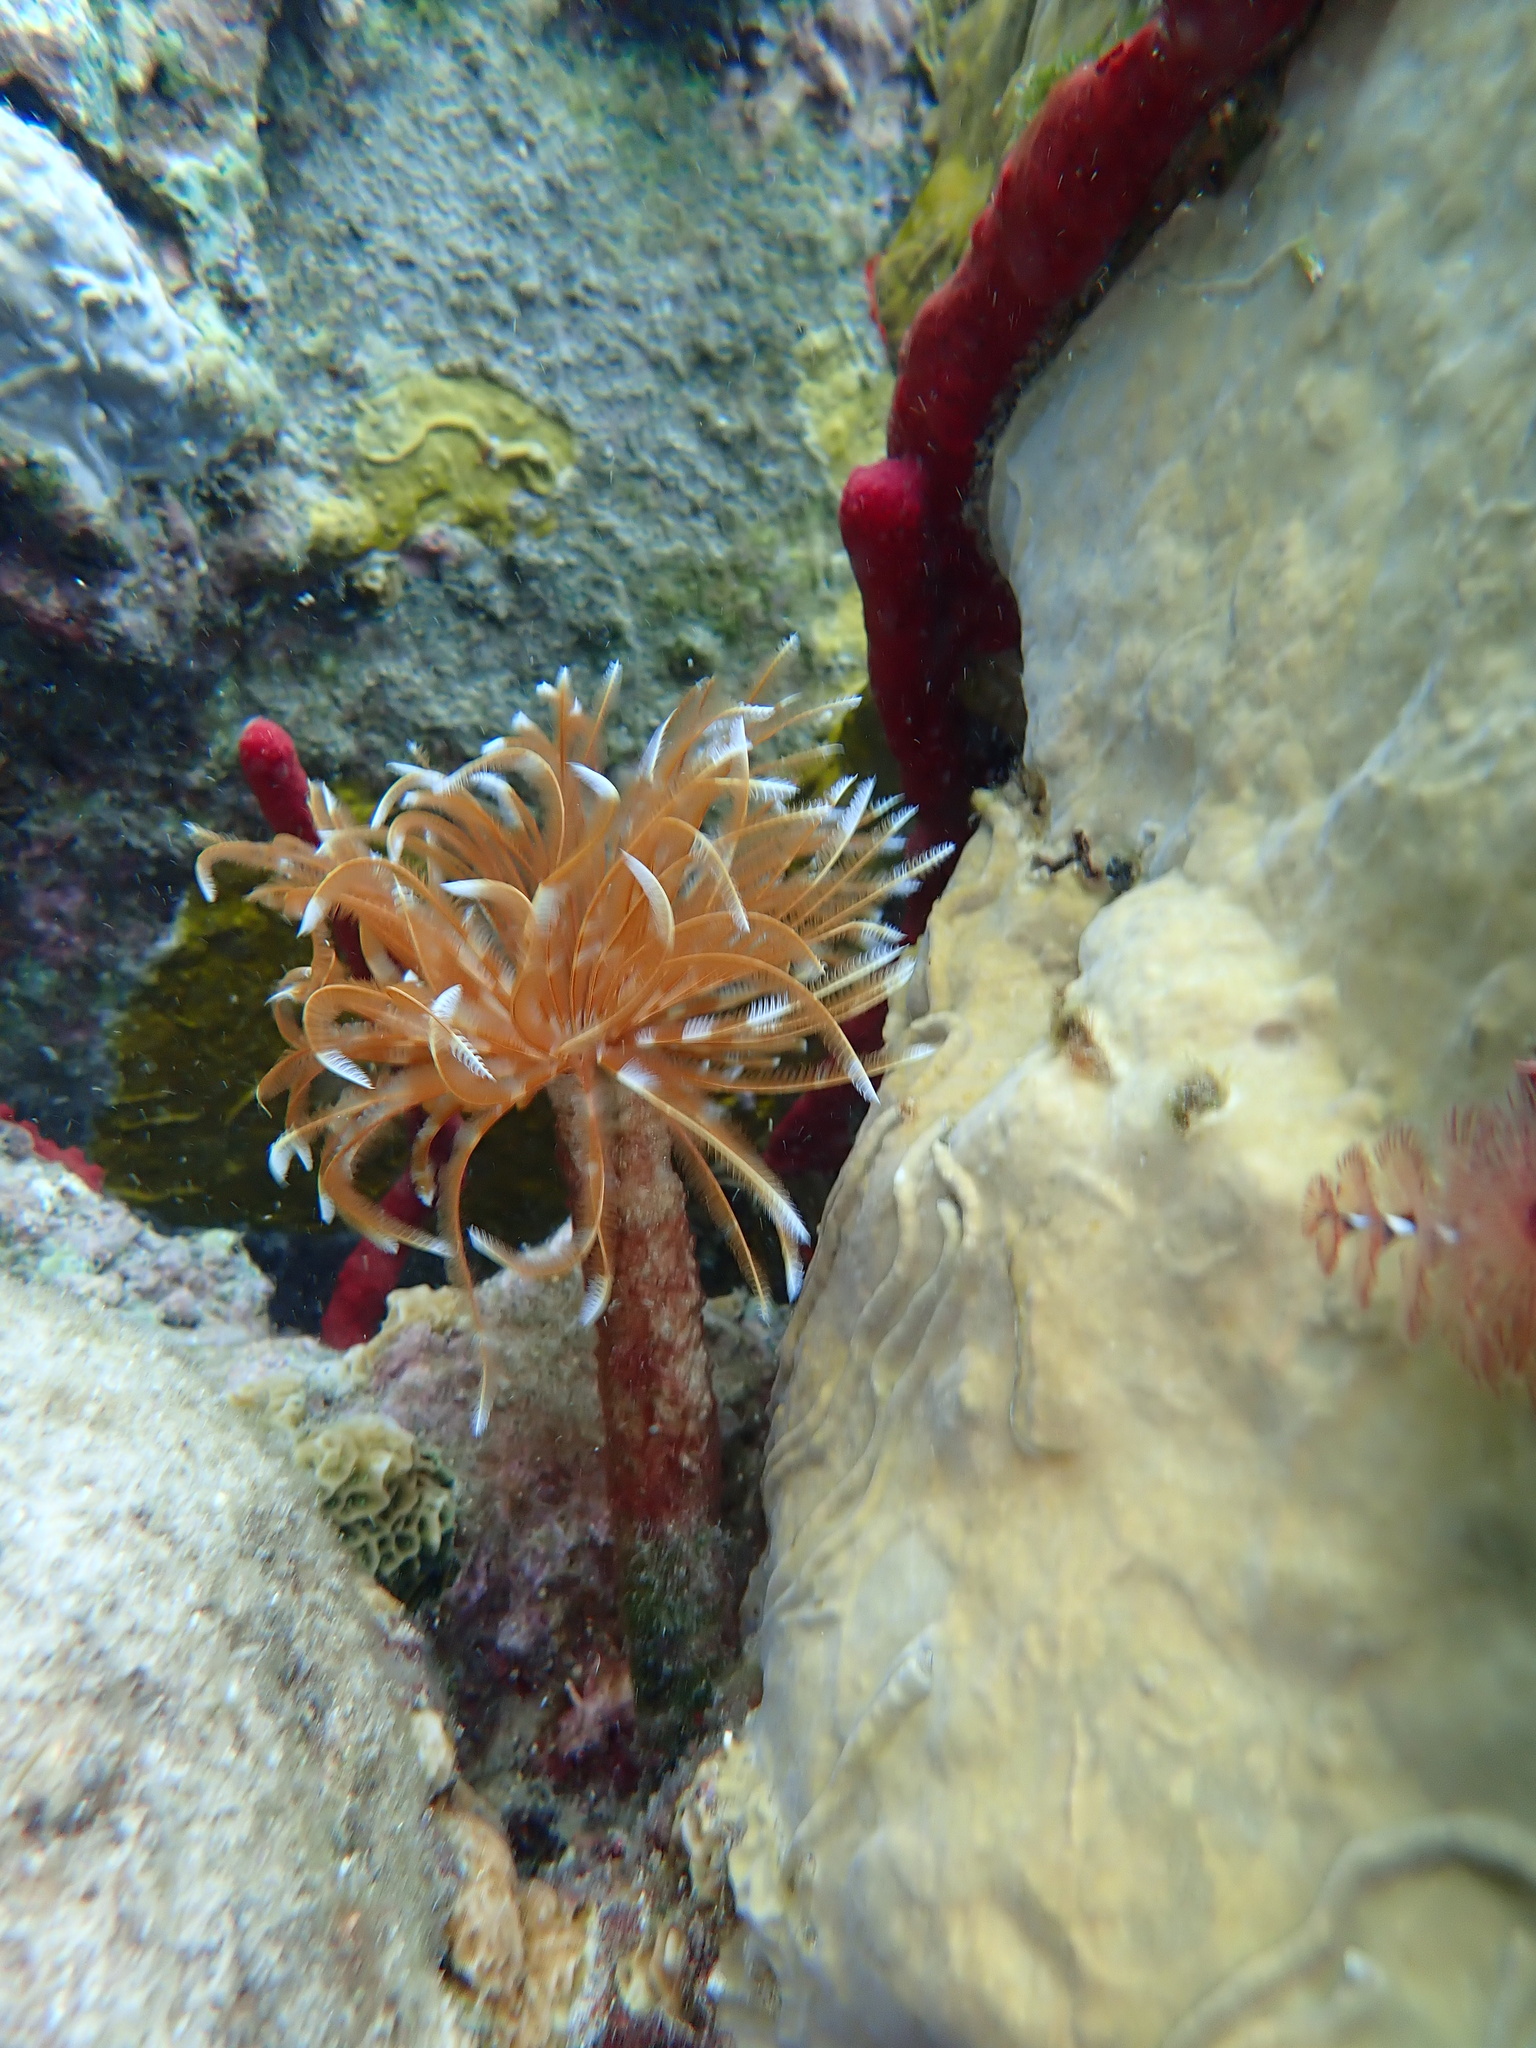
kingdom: Animalia
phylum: Annelida
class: Polychaeta
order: Sabellida
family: Sabellidae
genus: Sabellastarte
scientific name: Sabellastarte magnifica
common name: Giant feather-duster worm
